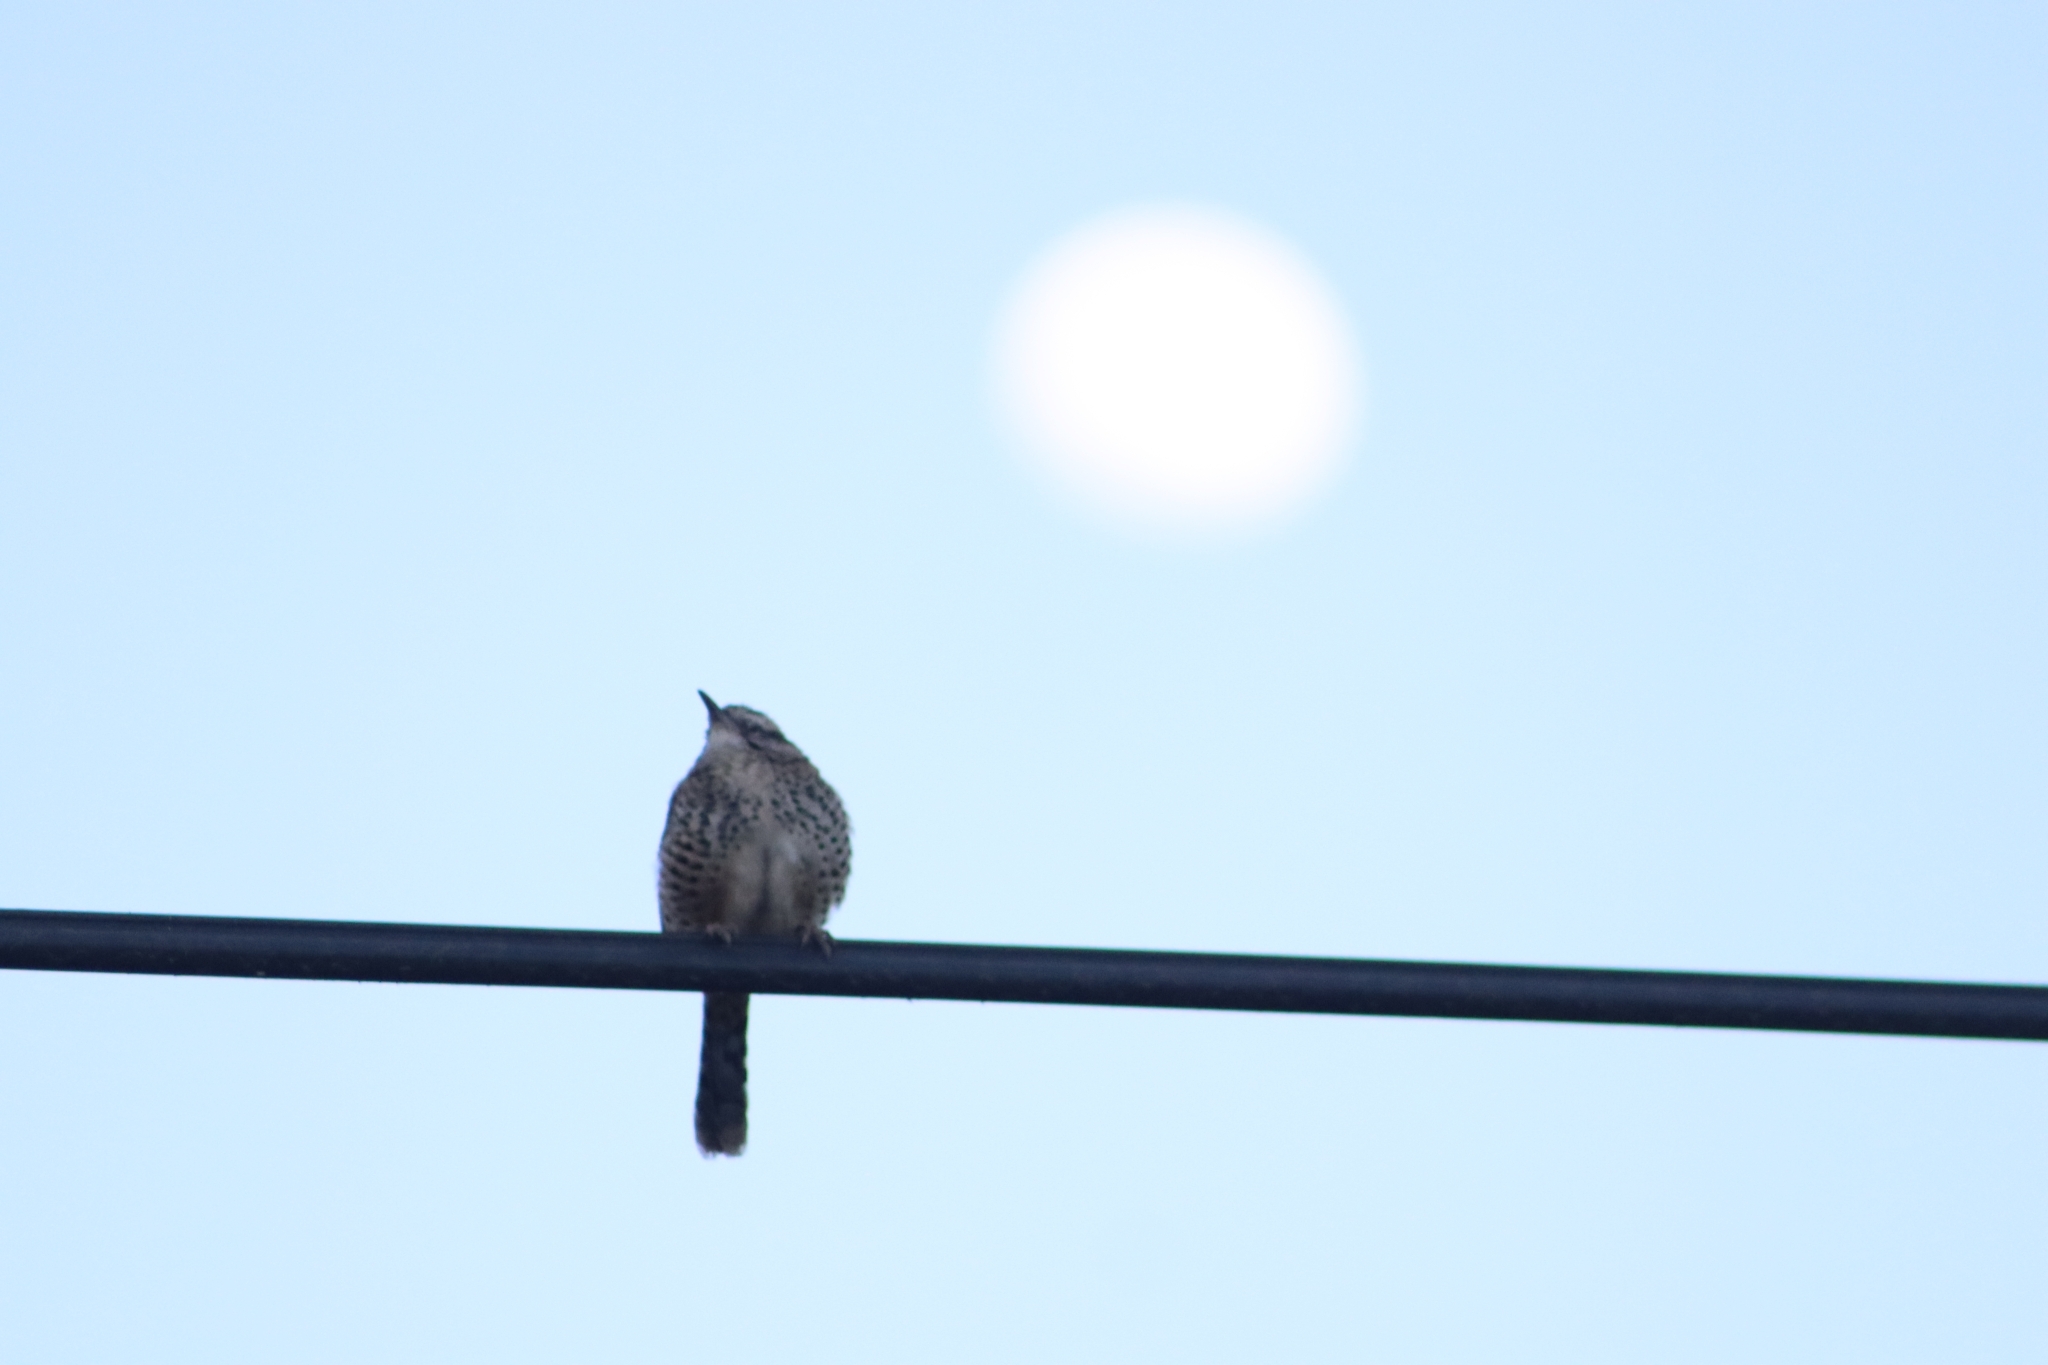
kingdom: Animalia
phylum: Chordata
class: Aves
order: Passeriformes
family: Troglodytidae
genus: Campylorhynchus
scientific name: Campylorhynchus gularis
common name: Spotted wren
